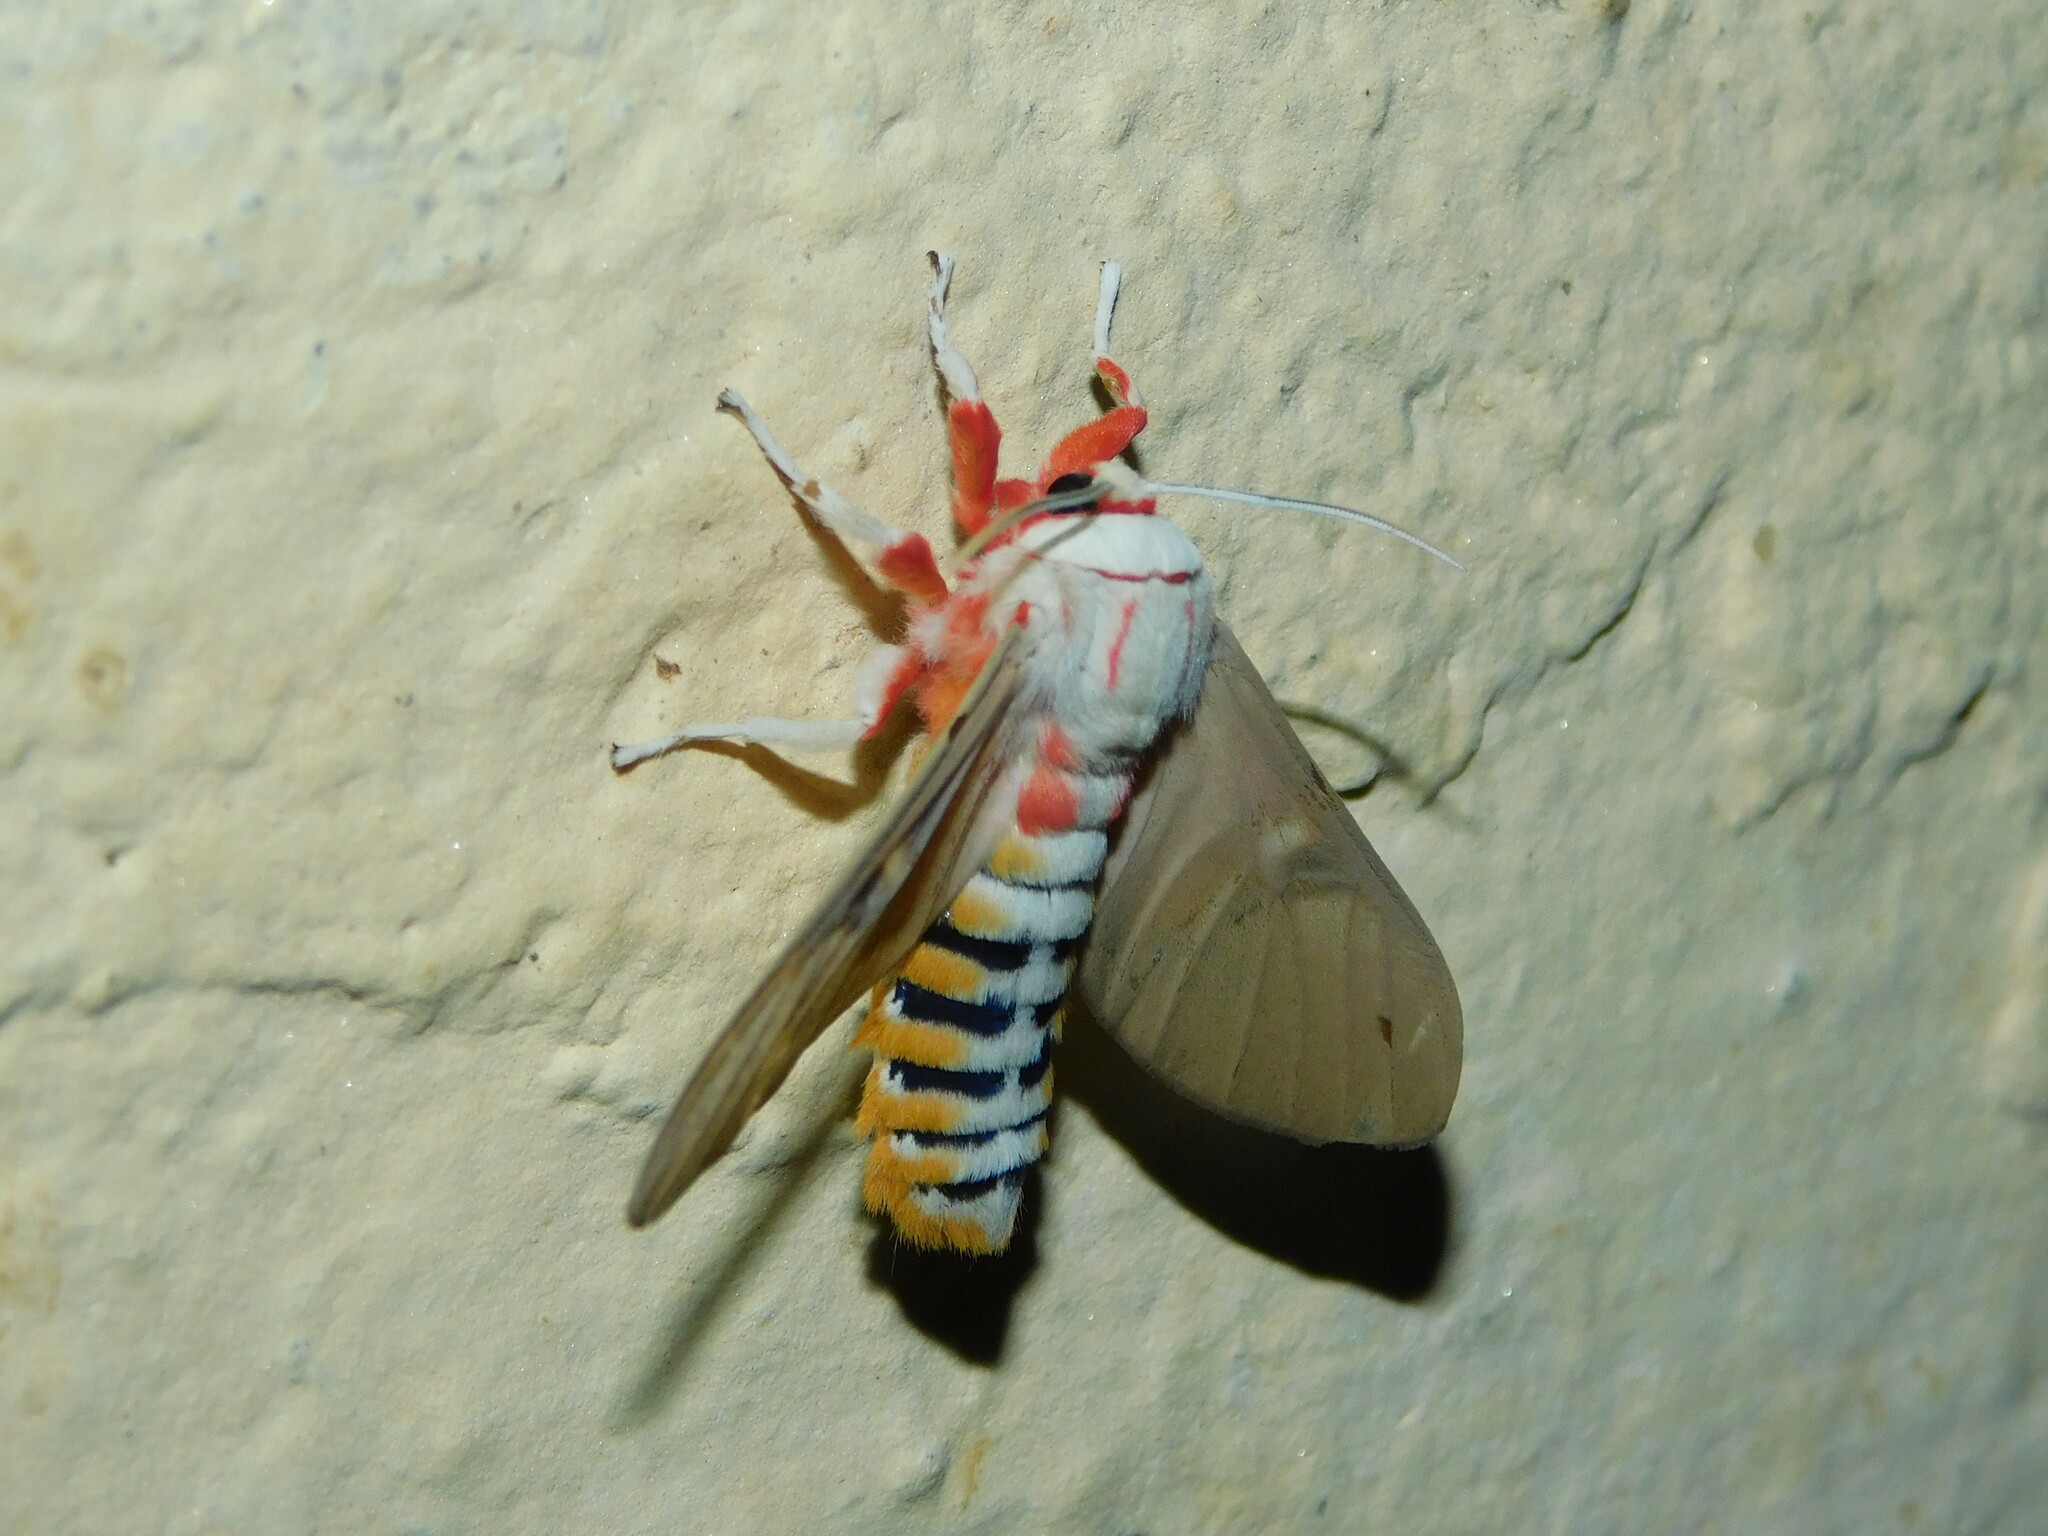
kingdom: Animalia
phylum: Arthropoda
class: Insecta
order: Lepidoptera
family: Erebidae
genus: Balacra
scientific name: Balacra herona
